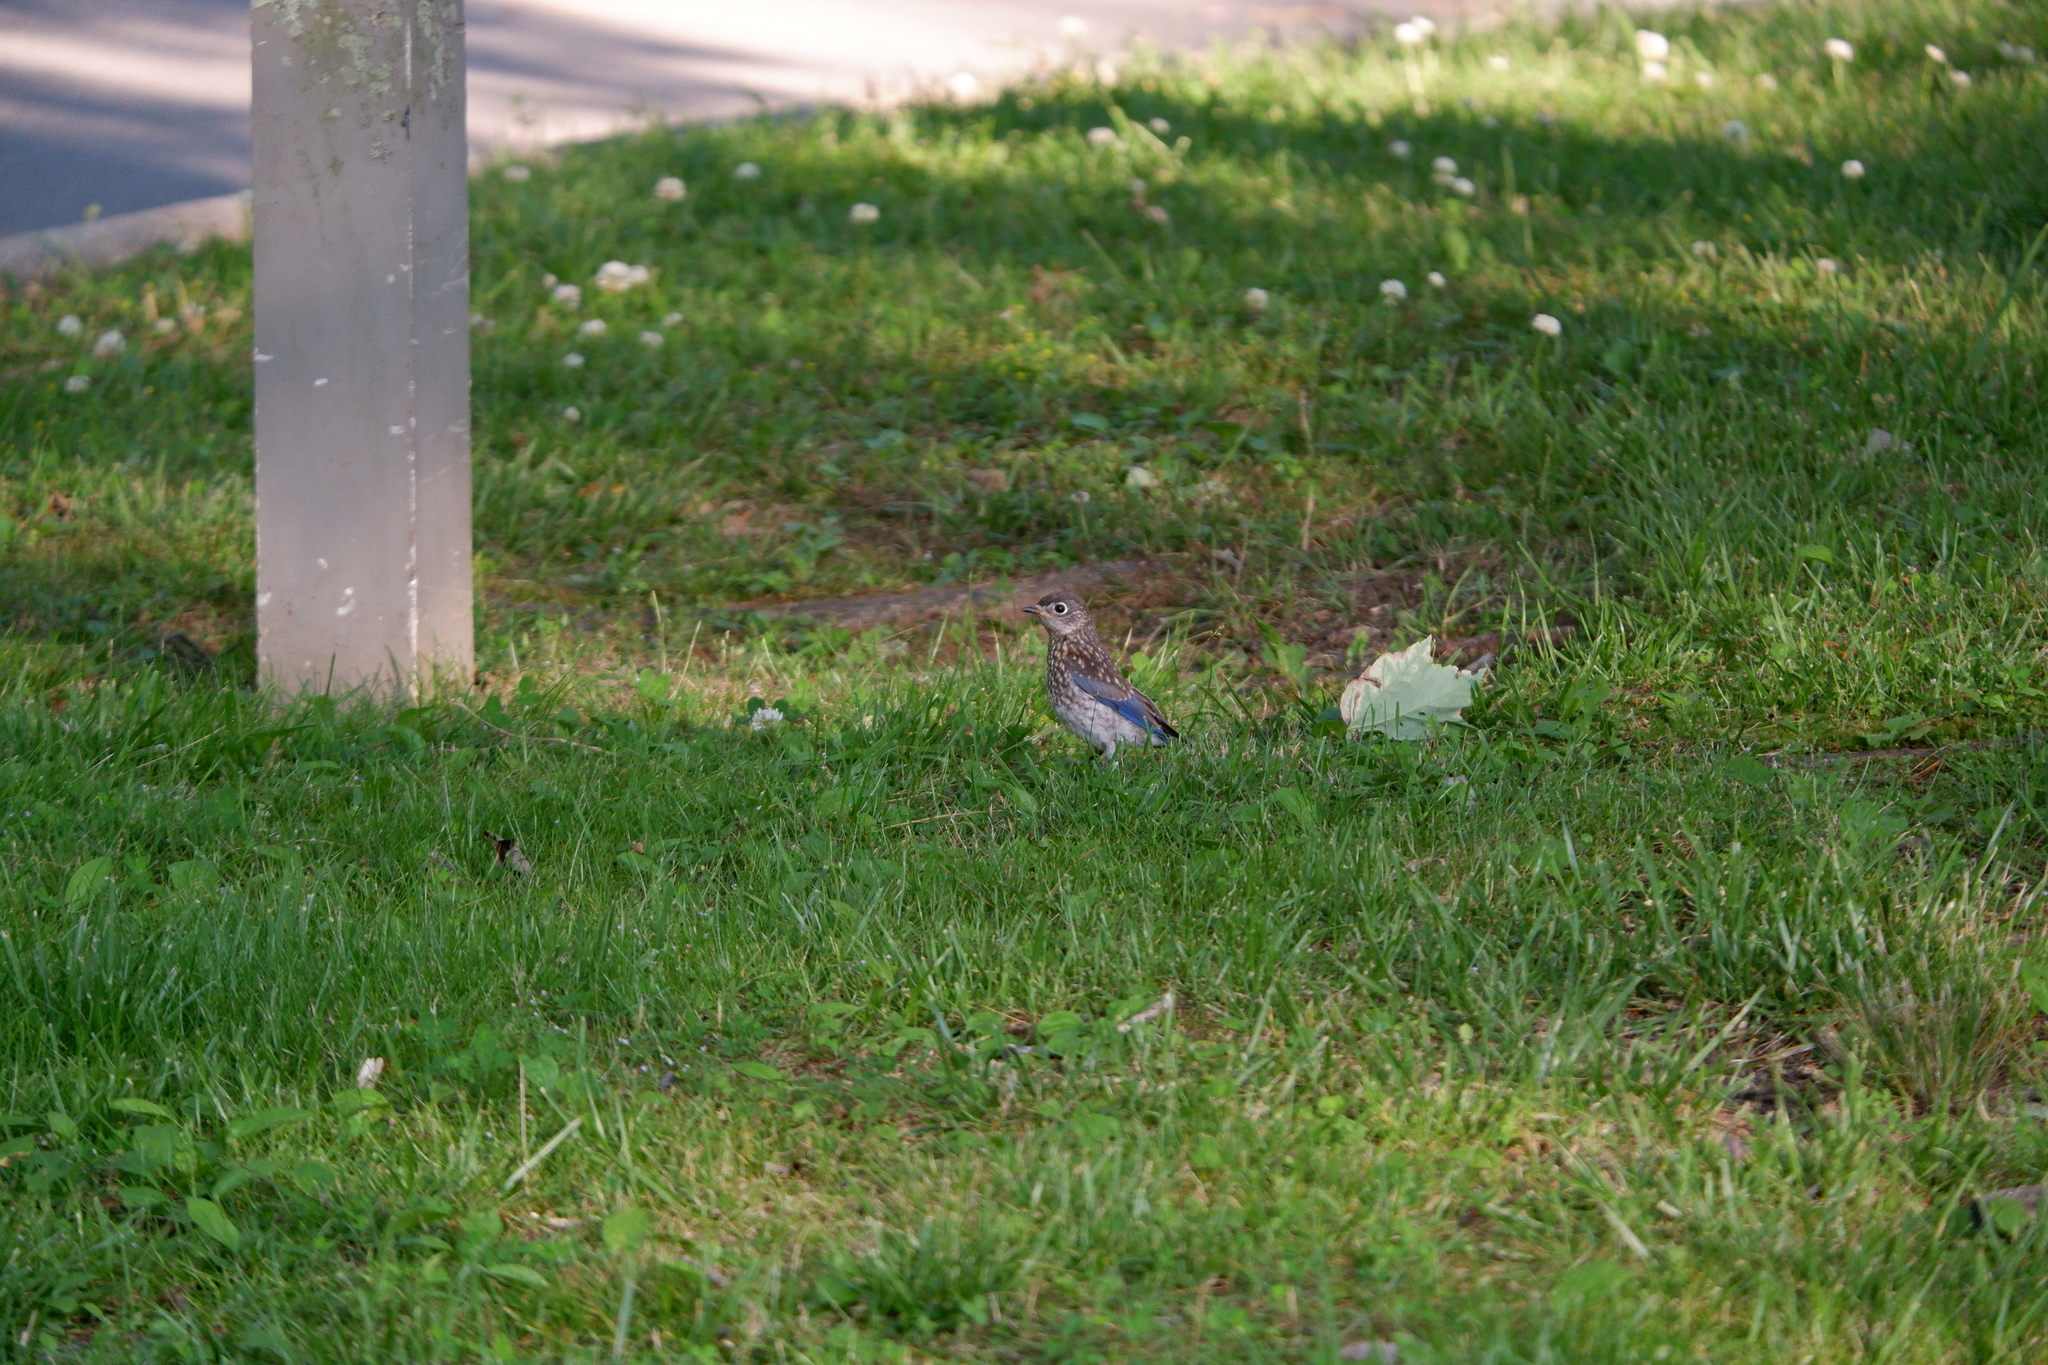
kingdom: Animalia
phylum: Chordata
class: Aves
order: Passeriformes
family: Turdidae
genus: Sialia
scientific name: Sialia sialis
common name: Eastern bluebird
